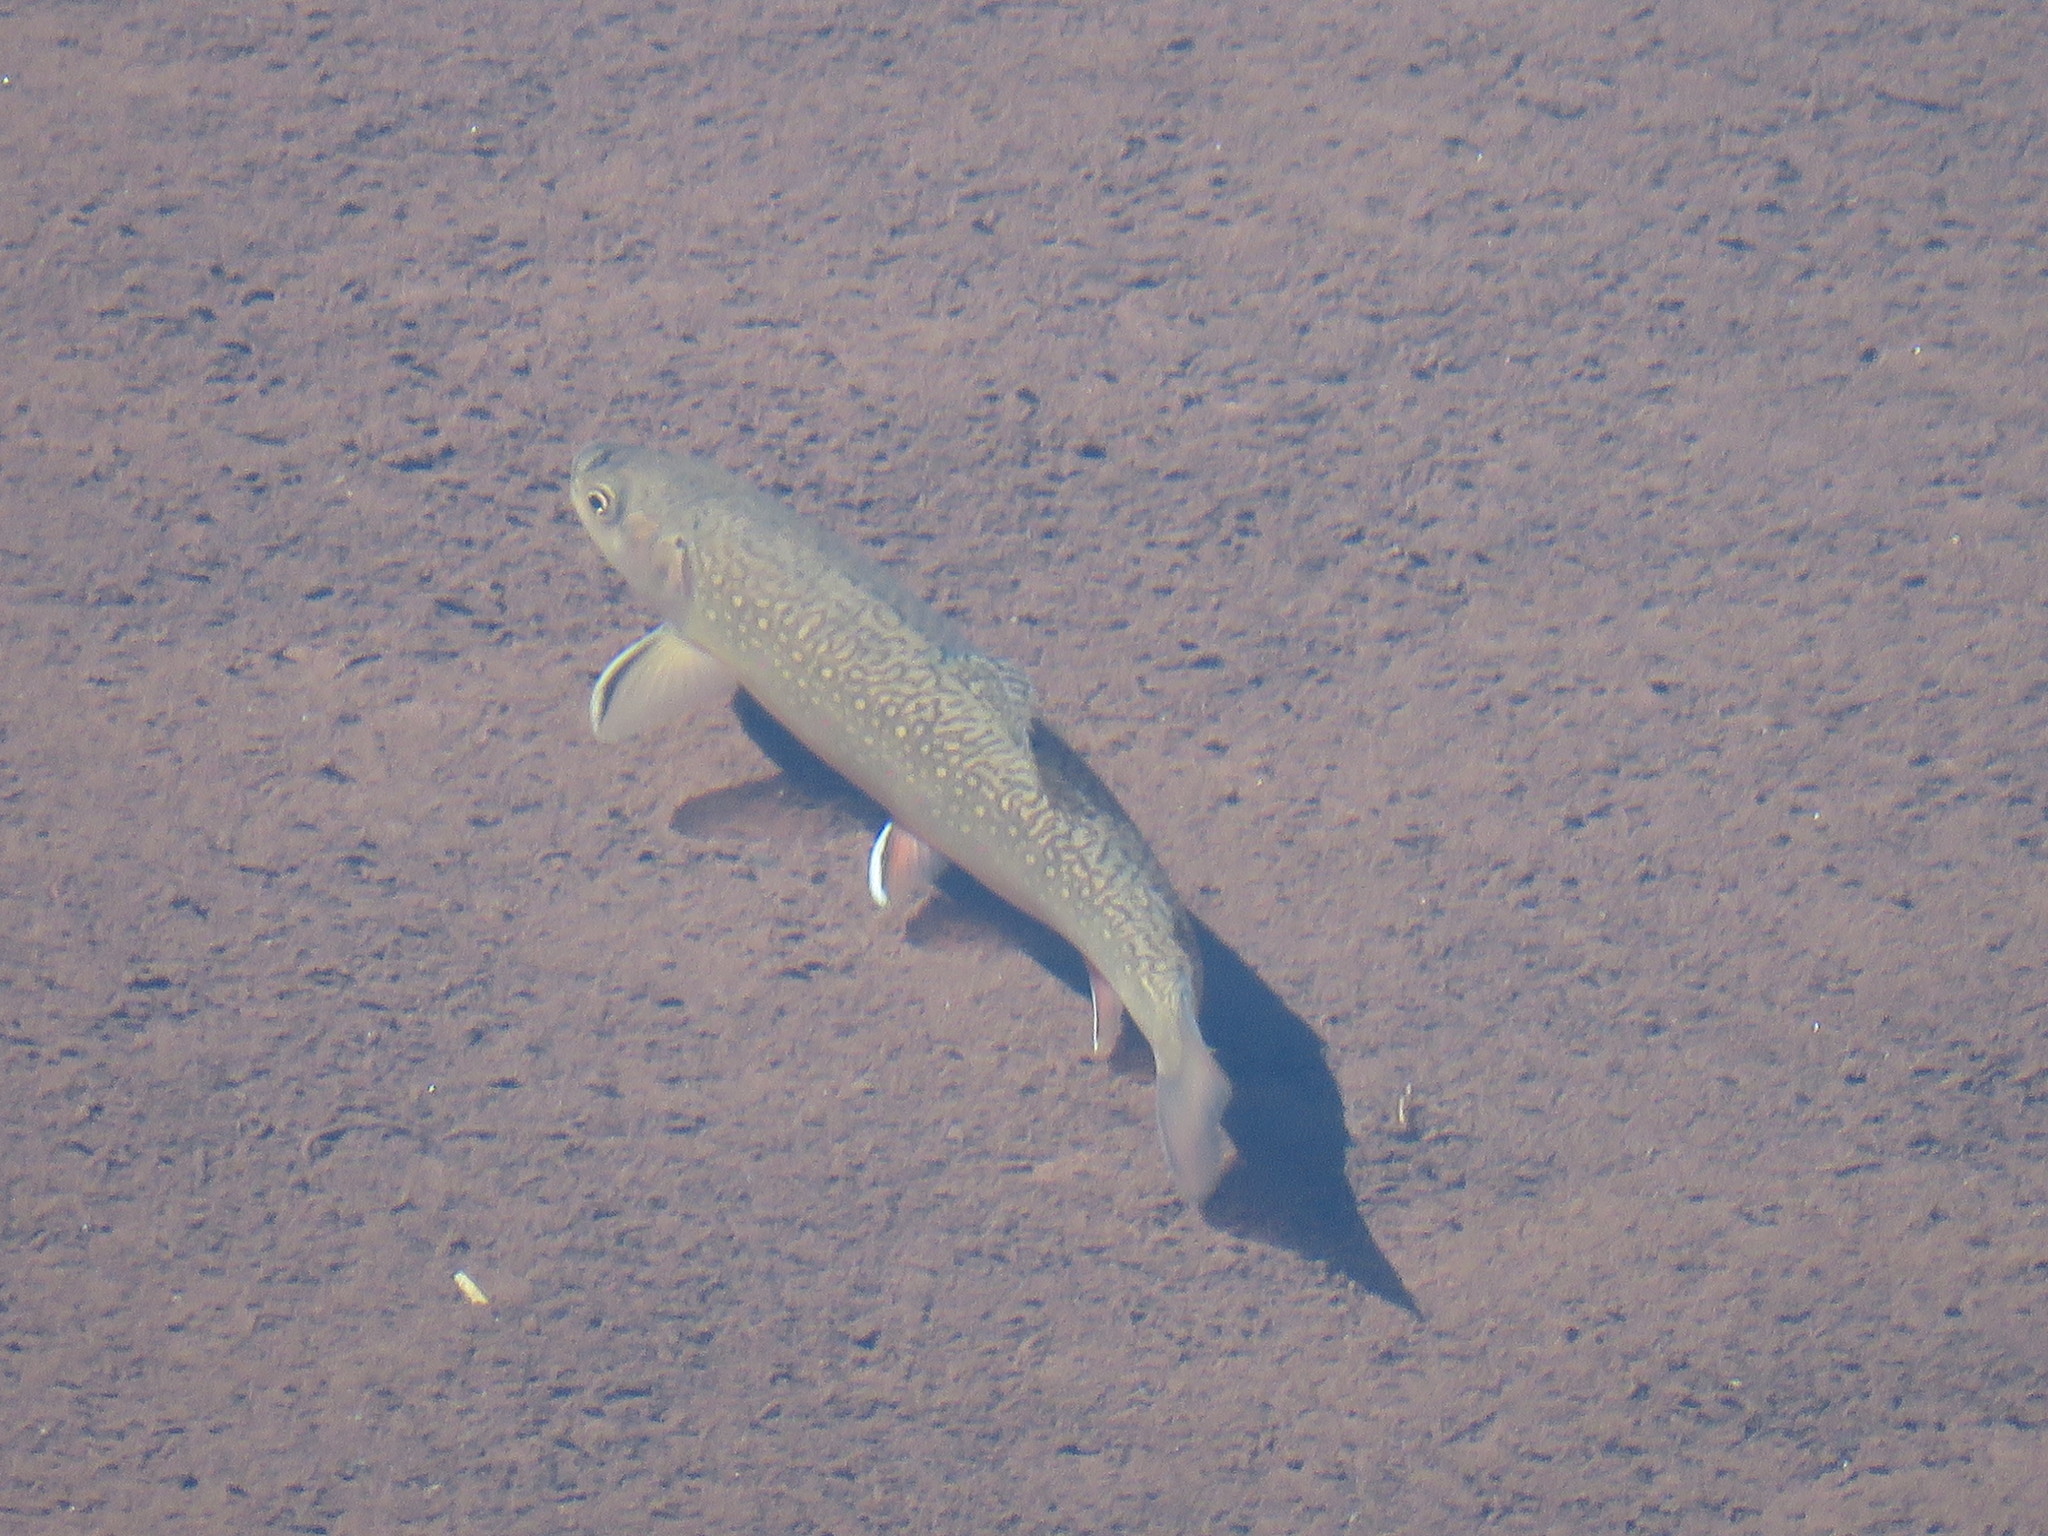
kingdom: Animalia
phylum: Chordata
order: Salmoniformes
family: Salmonidae
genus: Salvelinus
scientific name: Salvelinus fontinalis
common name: Brook trout
